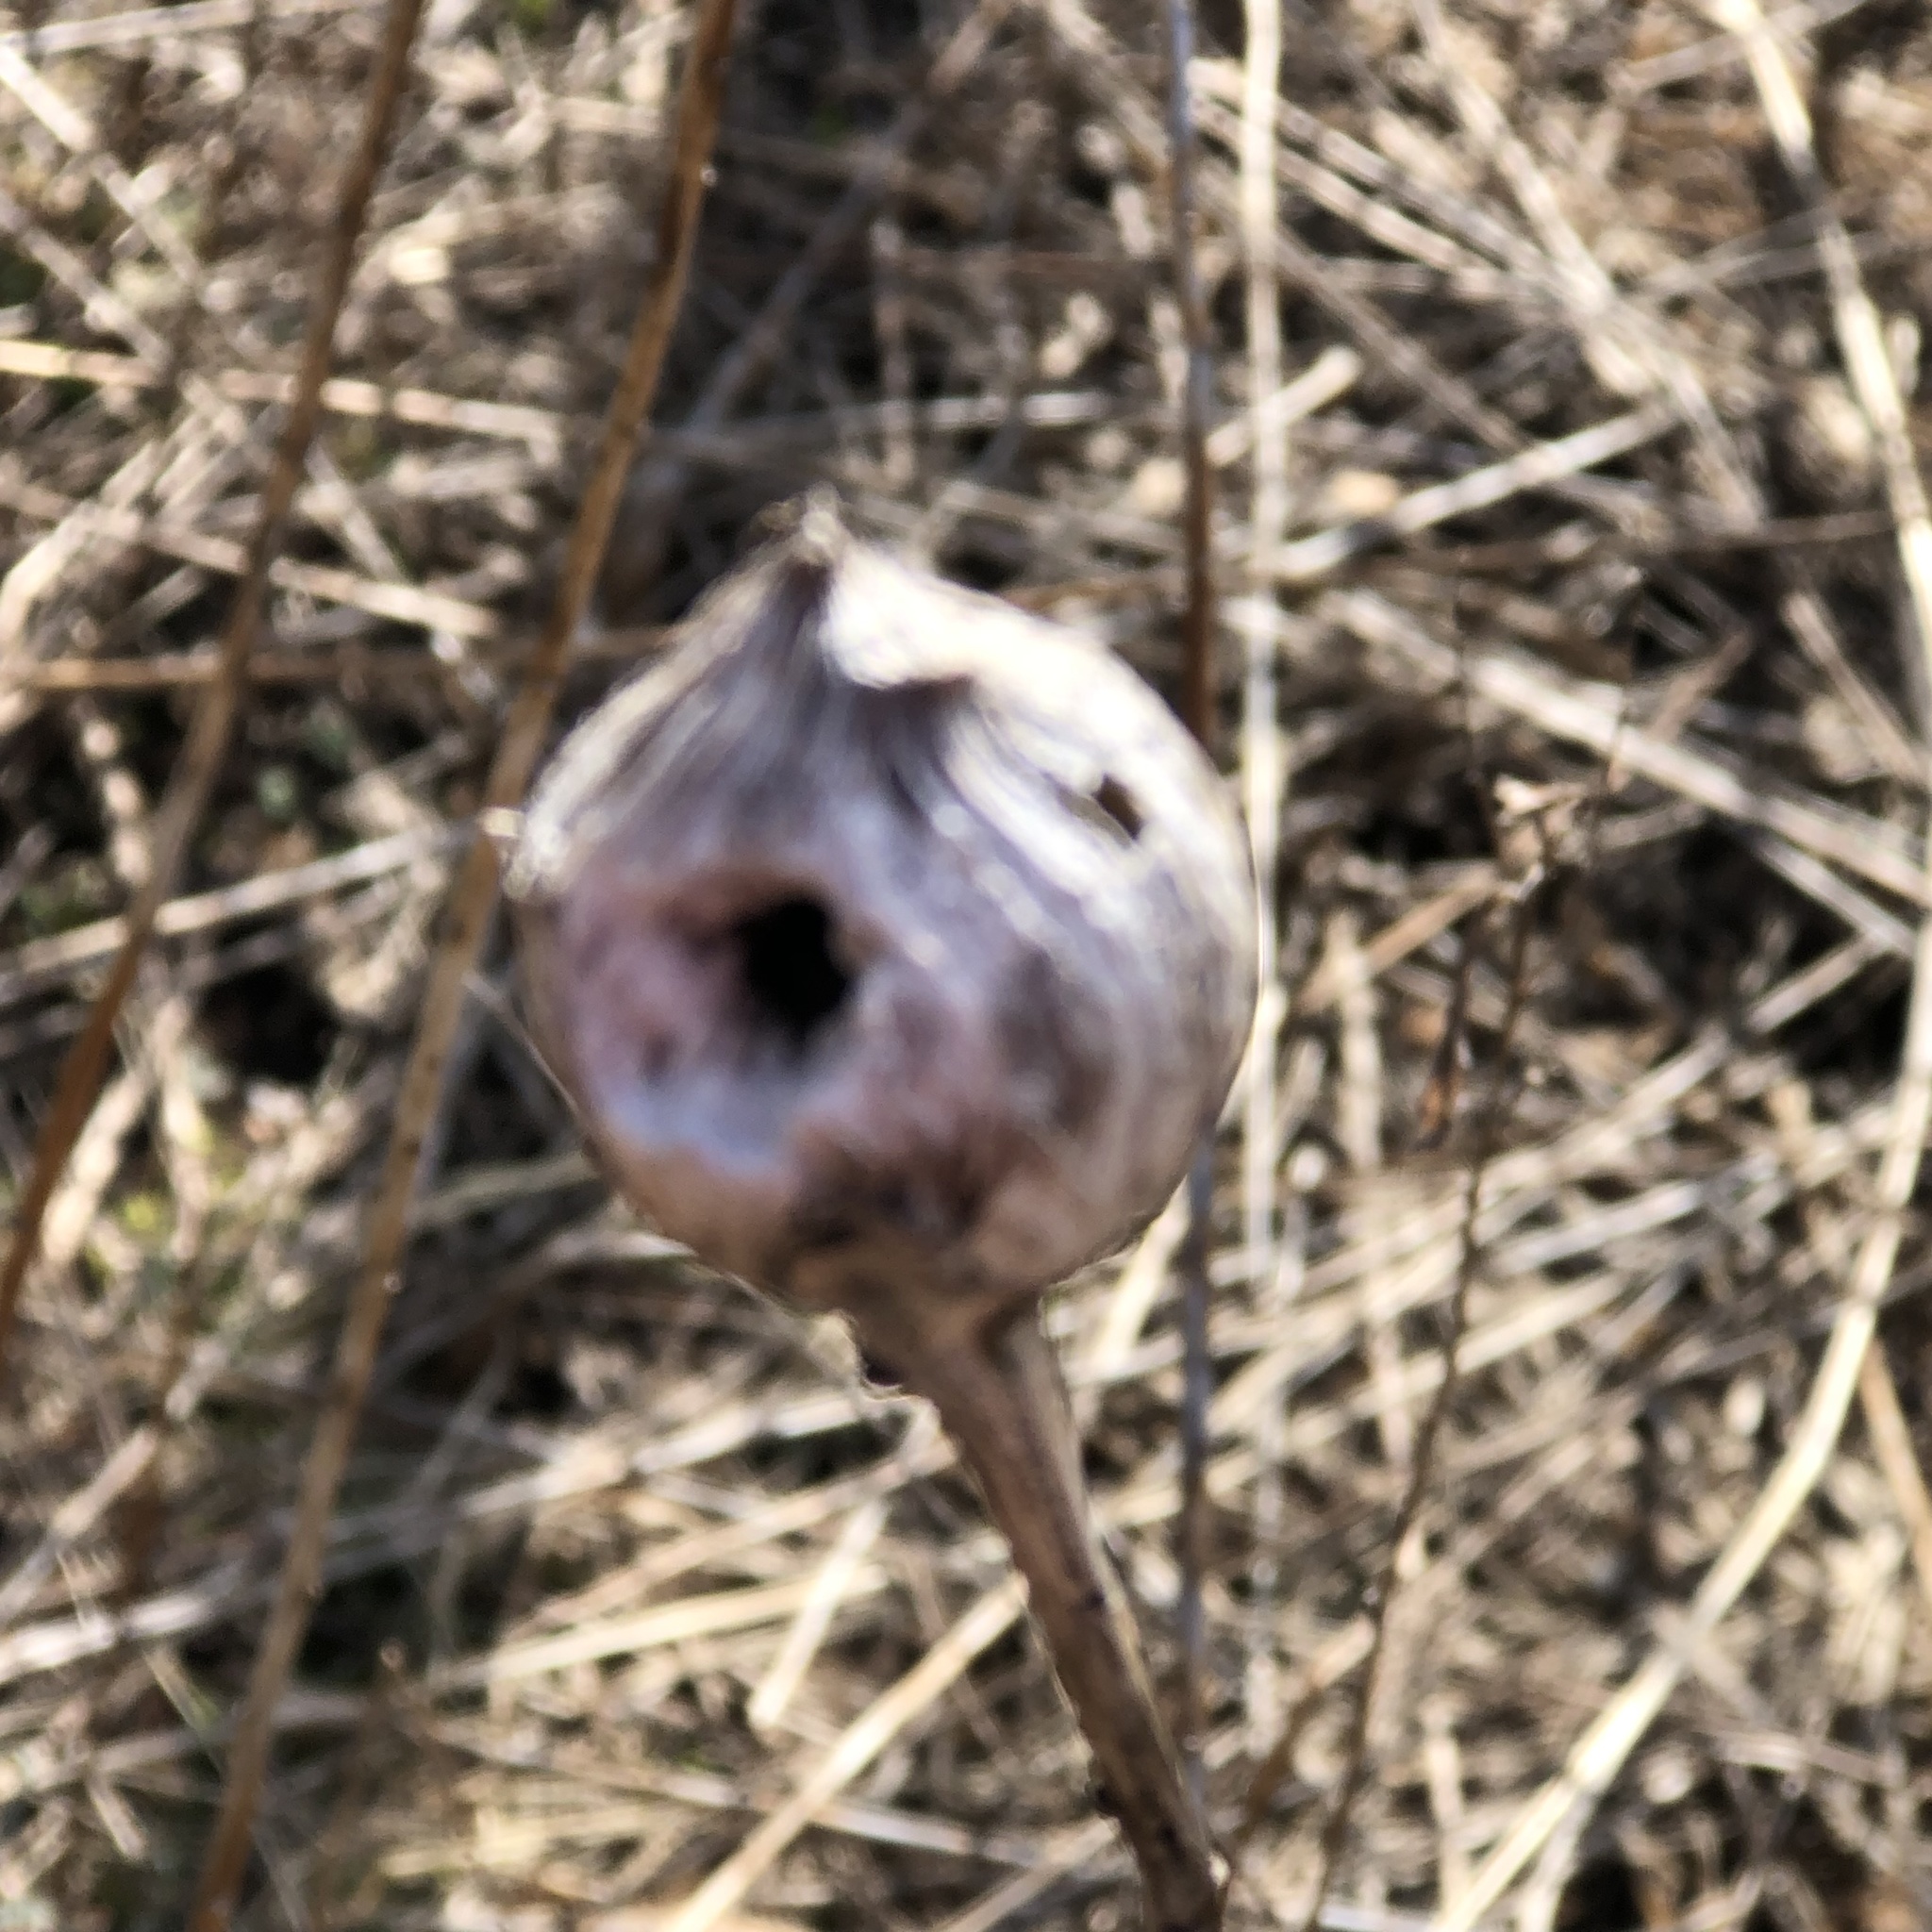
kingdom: Animalia
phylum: Arthropoda
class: Insecta
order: Diptera
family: Tephritidae
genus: Eurosta
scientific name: Eurosta solidaginis
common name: Goldenrod gall fly
